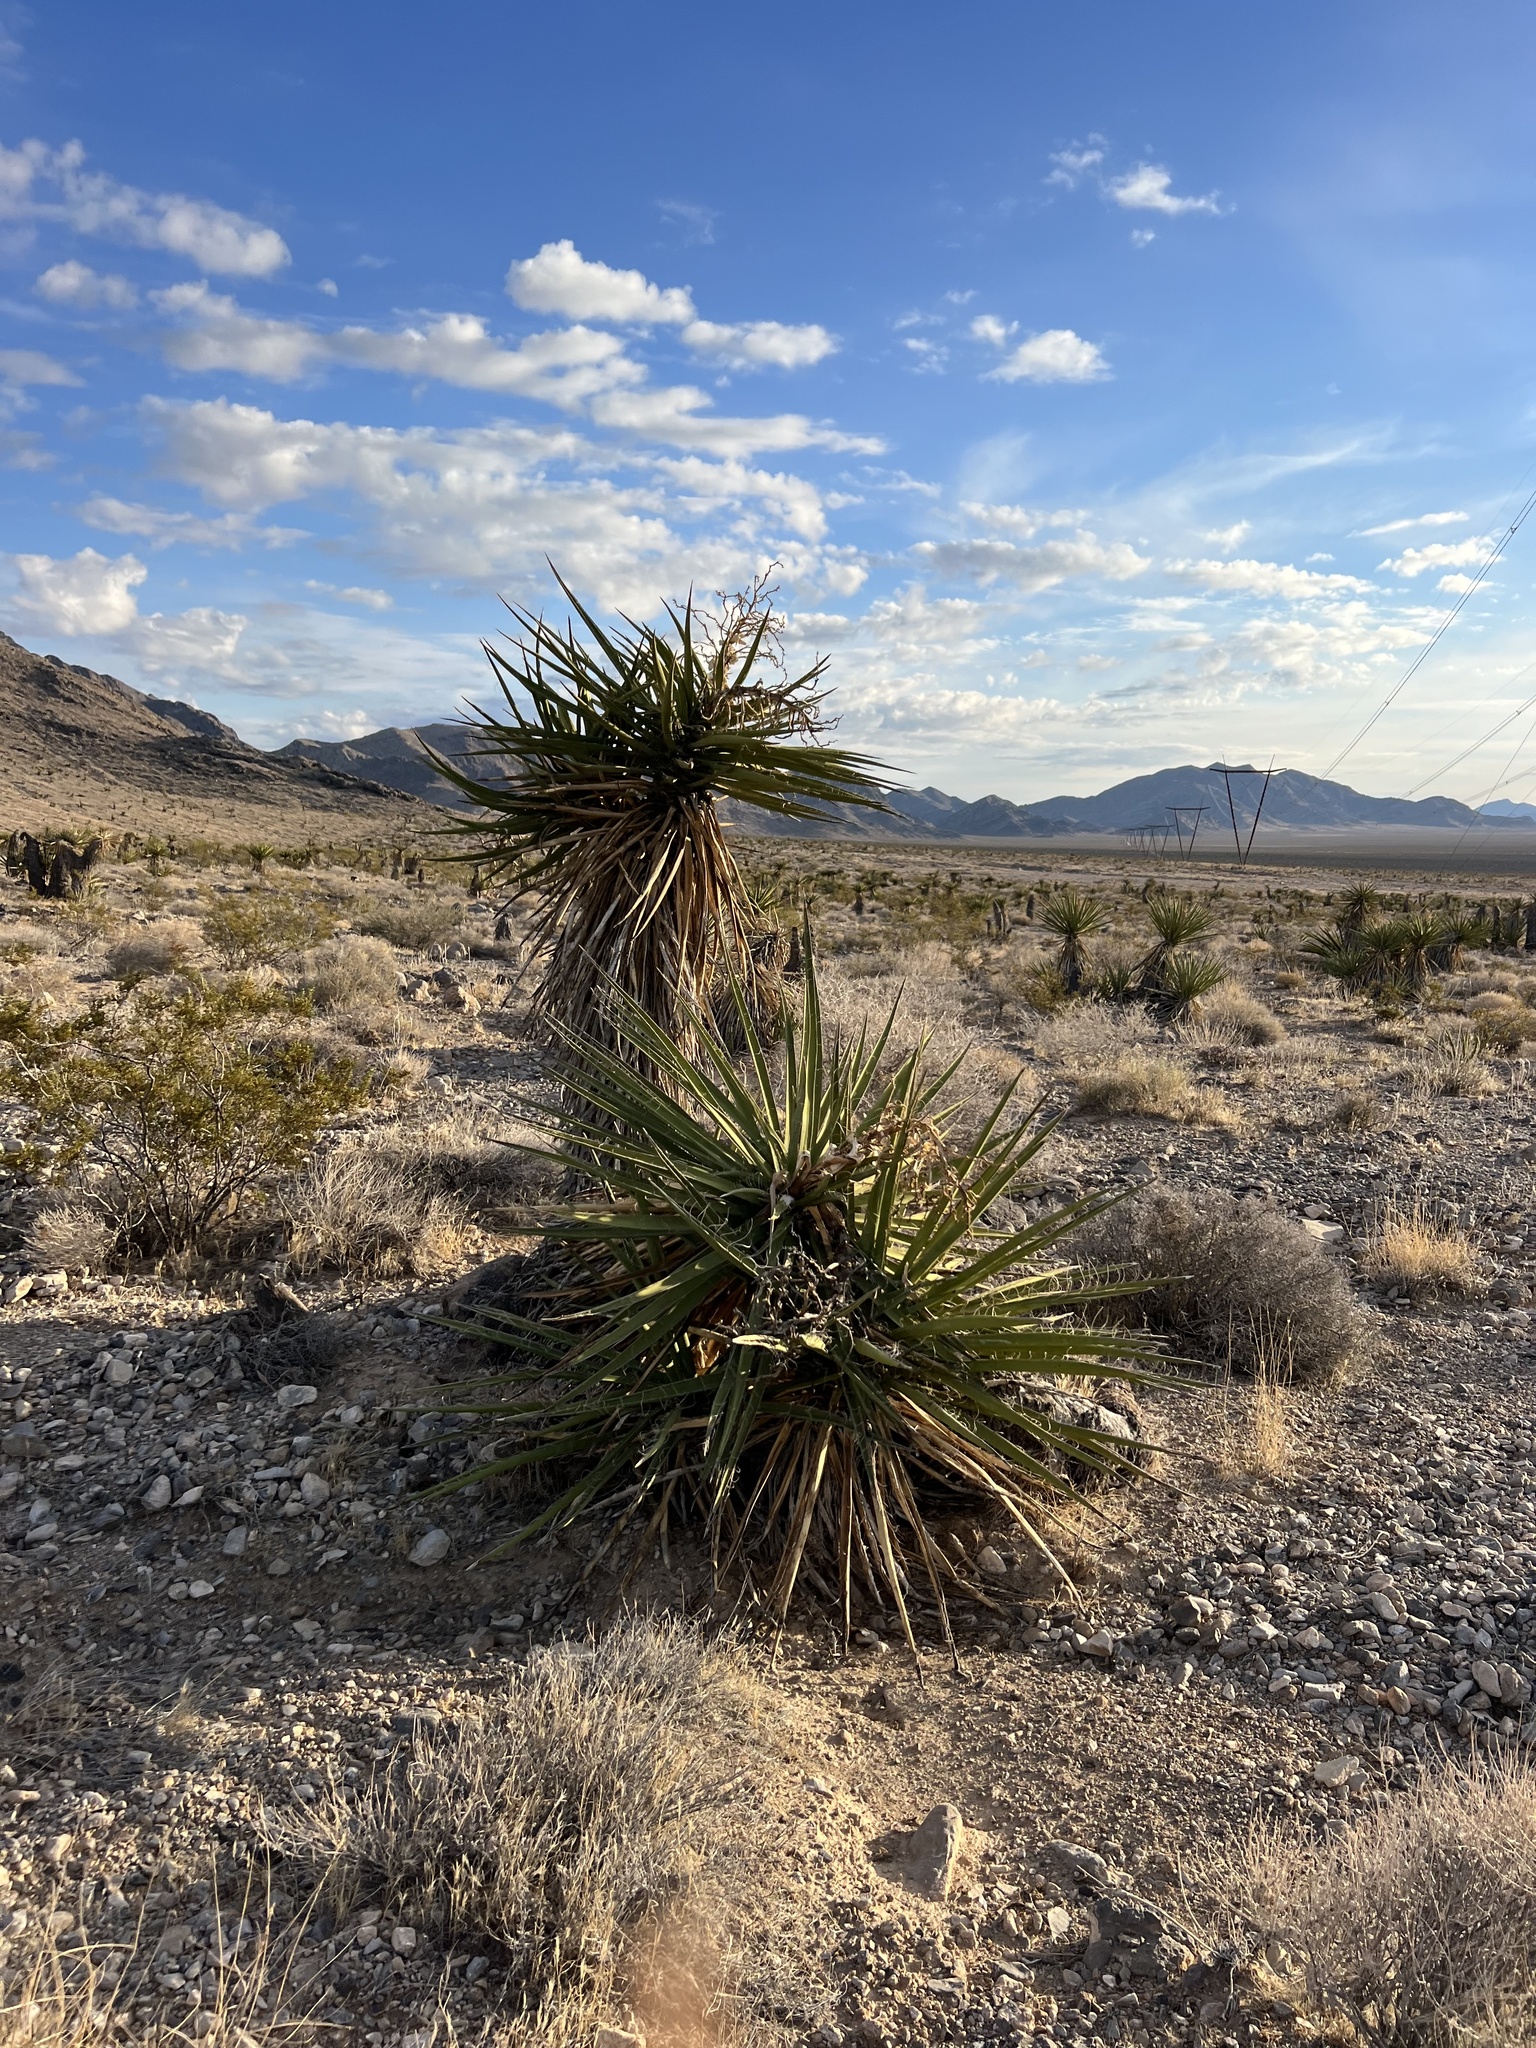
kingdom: Plantae
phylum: Tracheophyta
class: Liliopsida
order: Asparagales
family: Asparagaceae
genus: Yucca
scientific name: Yucca schidigera
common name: Mojave yucca
